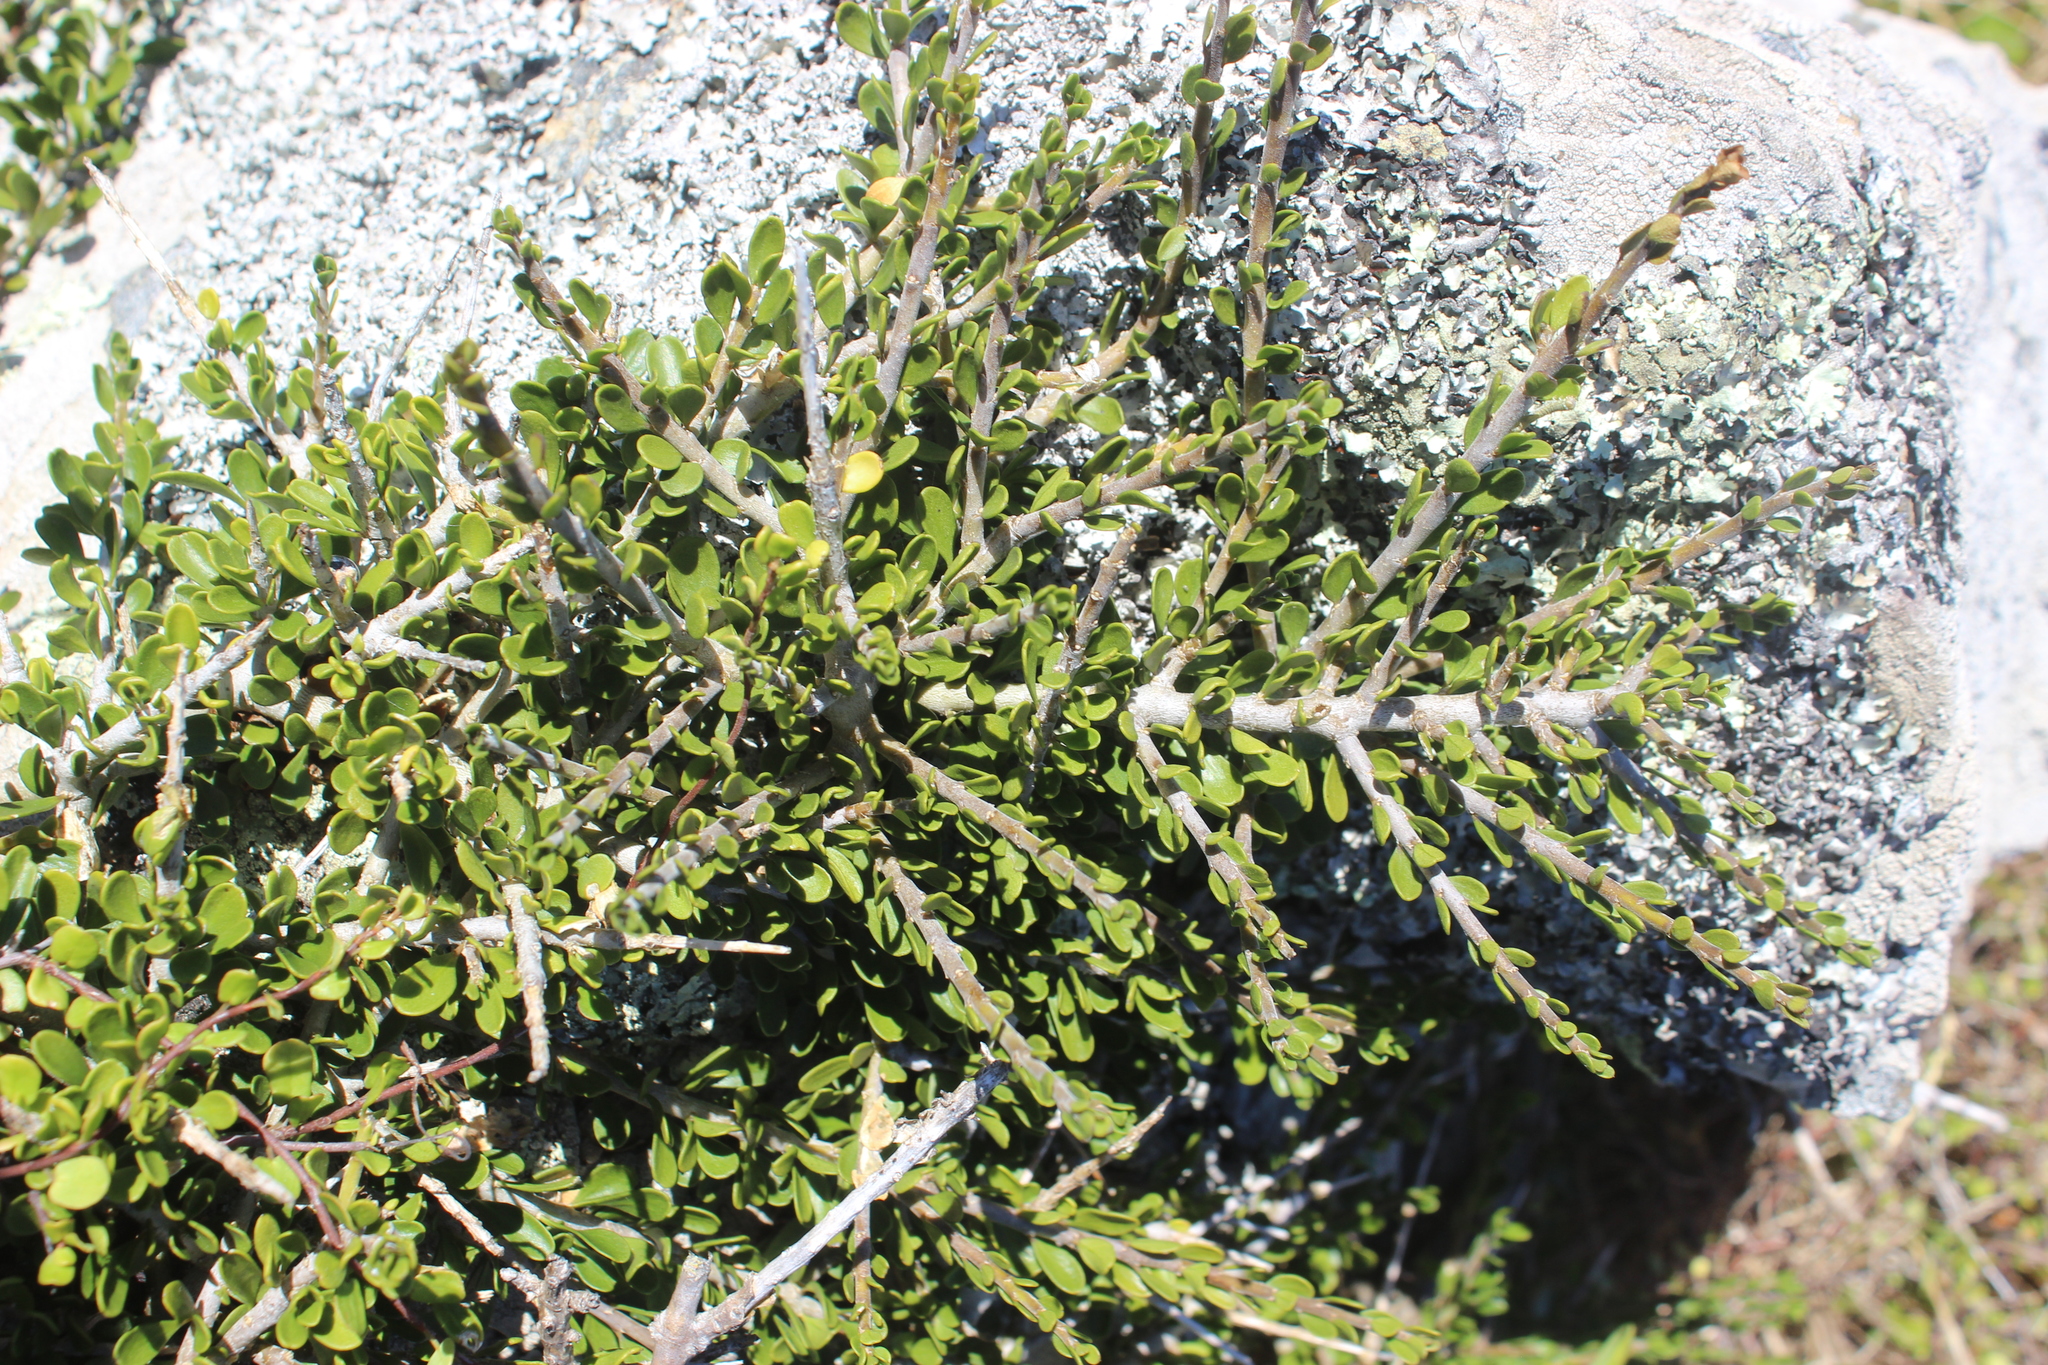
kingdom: Plantae
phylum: Tracheophyta
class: Magnoliopsida
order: Malpighiales
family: Violaceae
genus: Melicytus
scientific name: Melicytus crassifolius
